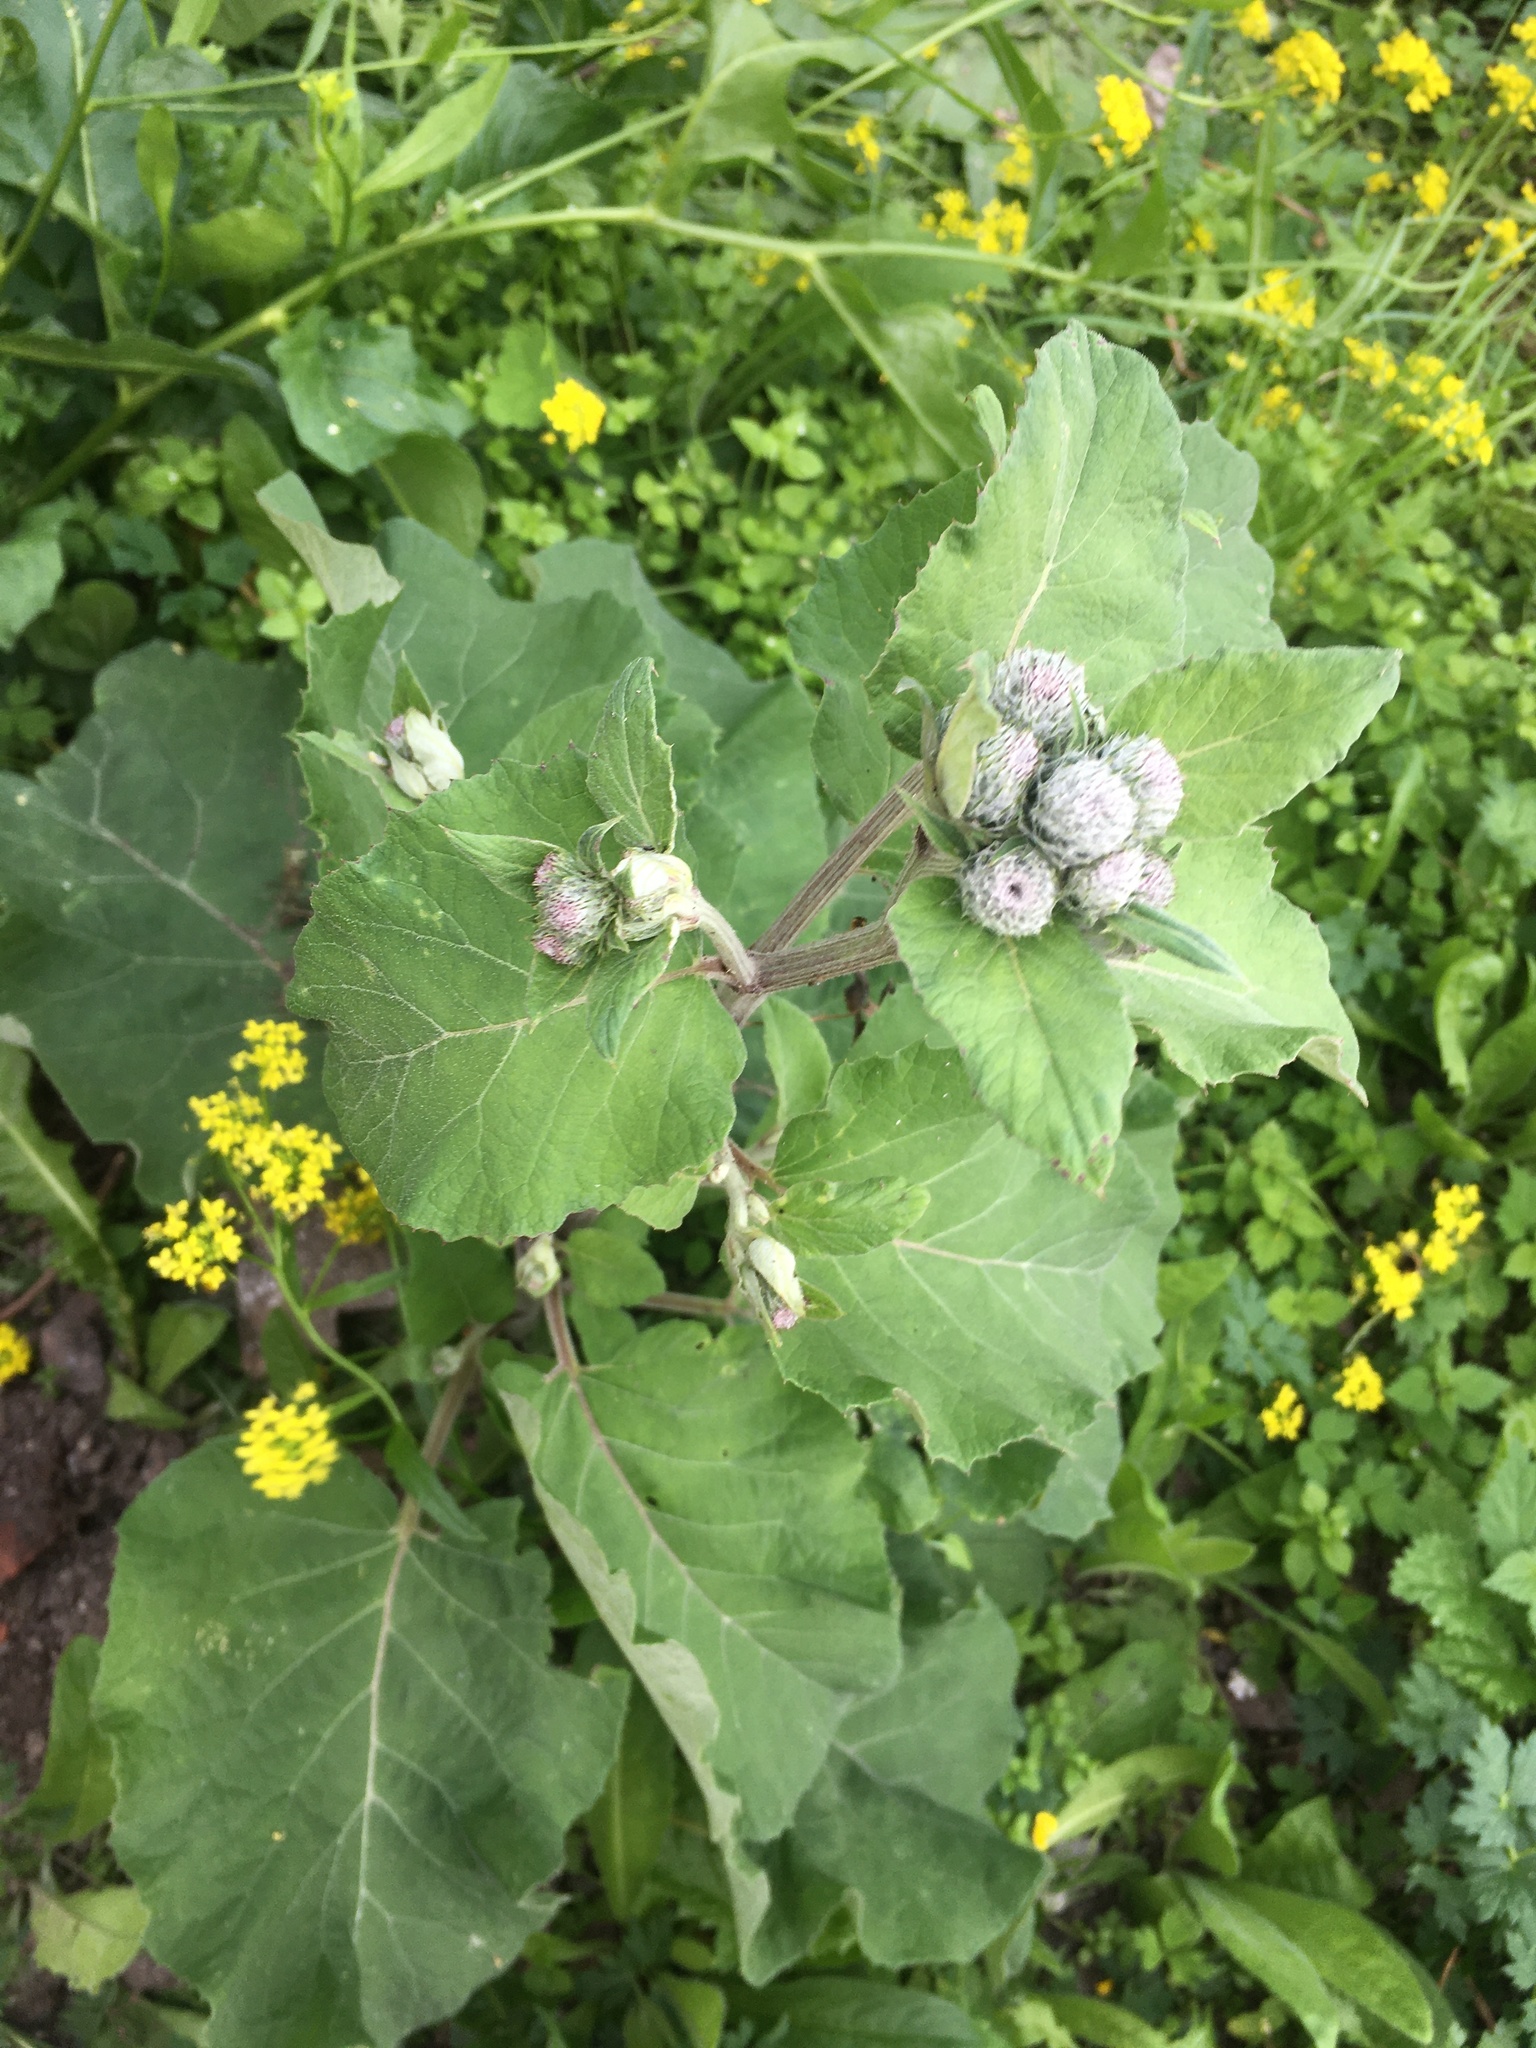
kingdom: Plantae
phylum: Tracheophyta
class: Magnoliopsida
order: Asterales
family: Asteraceae
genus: Arctium
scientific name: Arctium tomentosum
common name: Woolly burdock
